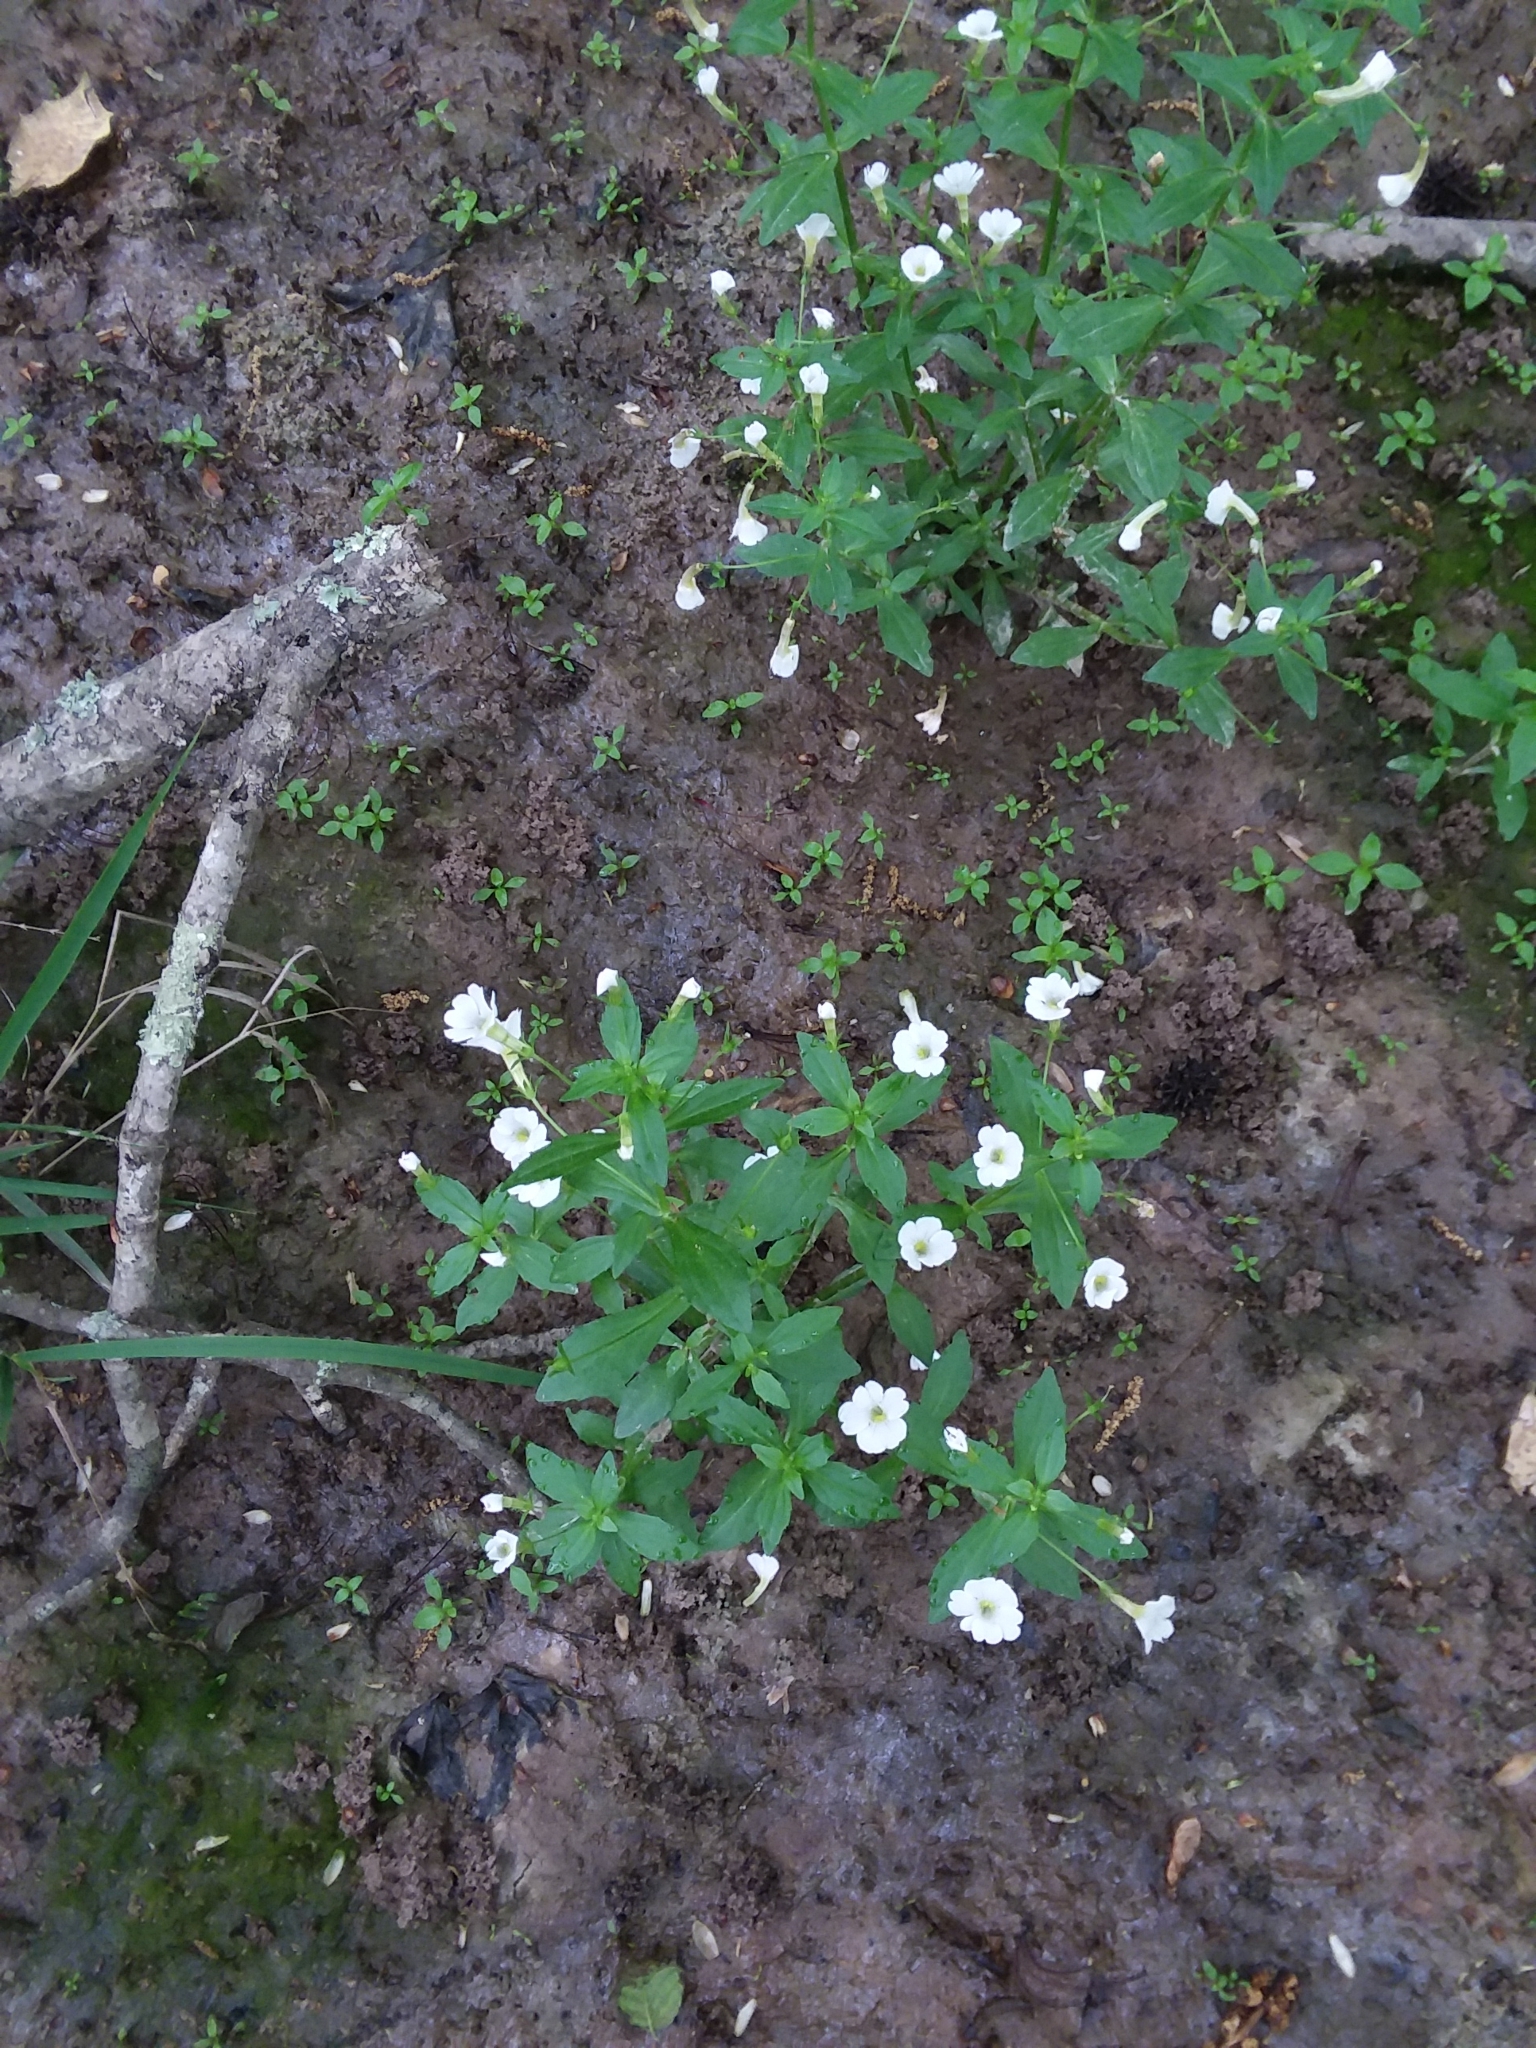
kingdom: Plantae
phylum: Tracheophyta
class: Magnoliopsida
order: Lamiales
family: Plantaginaceae
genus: Gratiola
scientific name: Gratiola floridana
